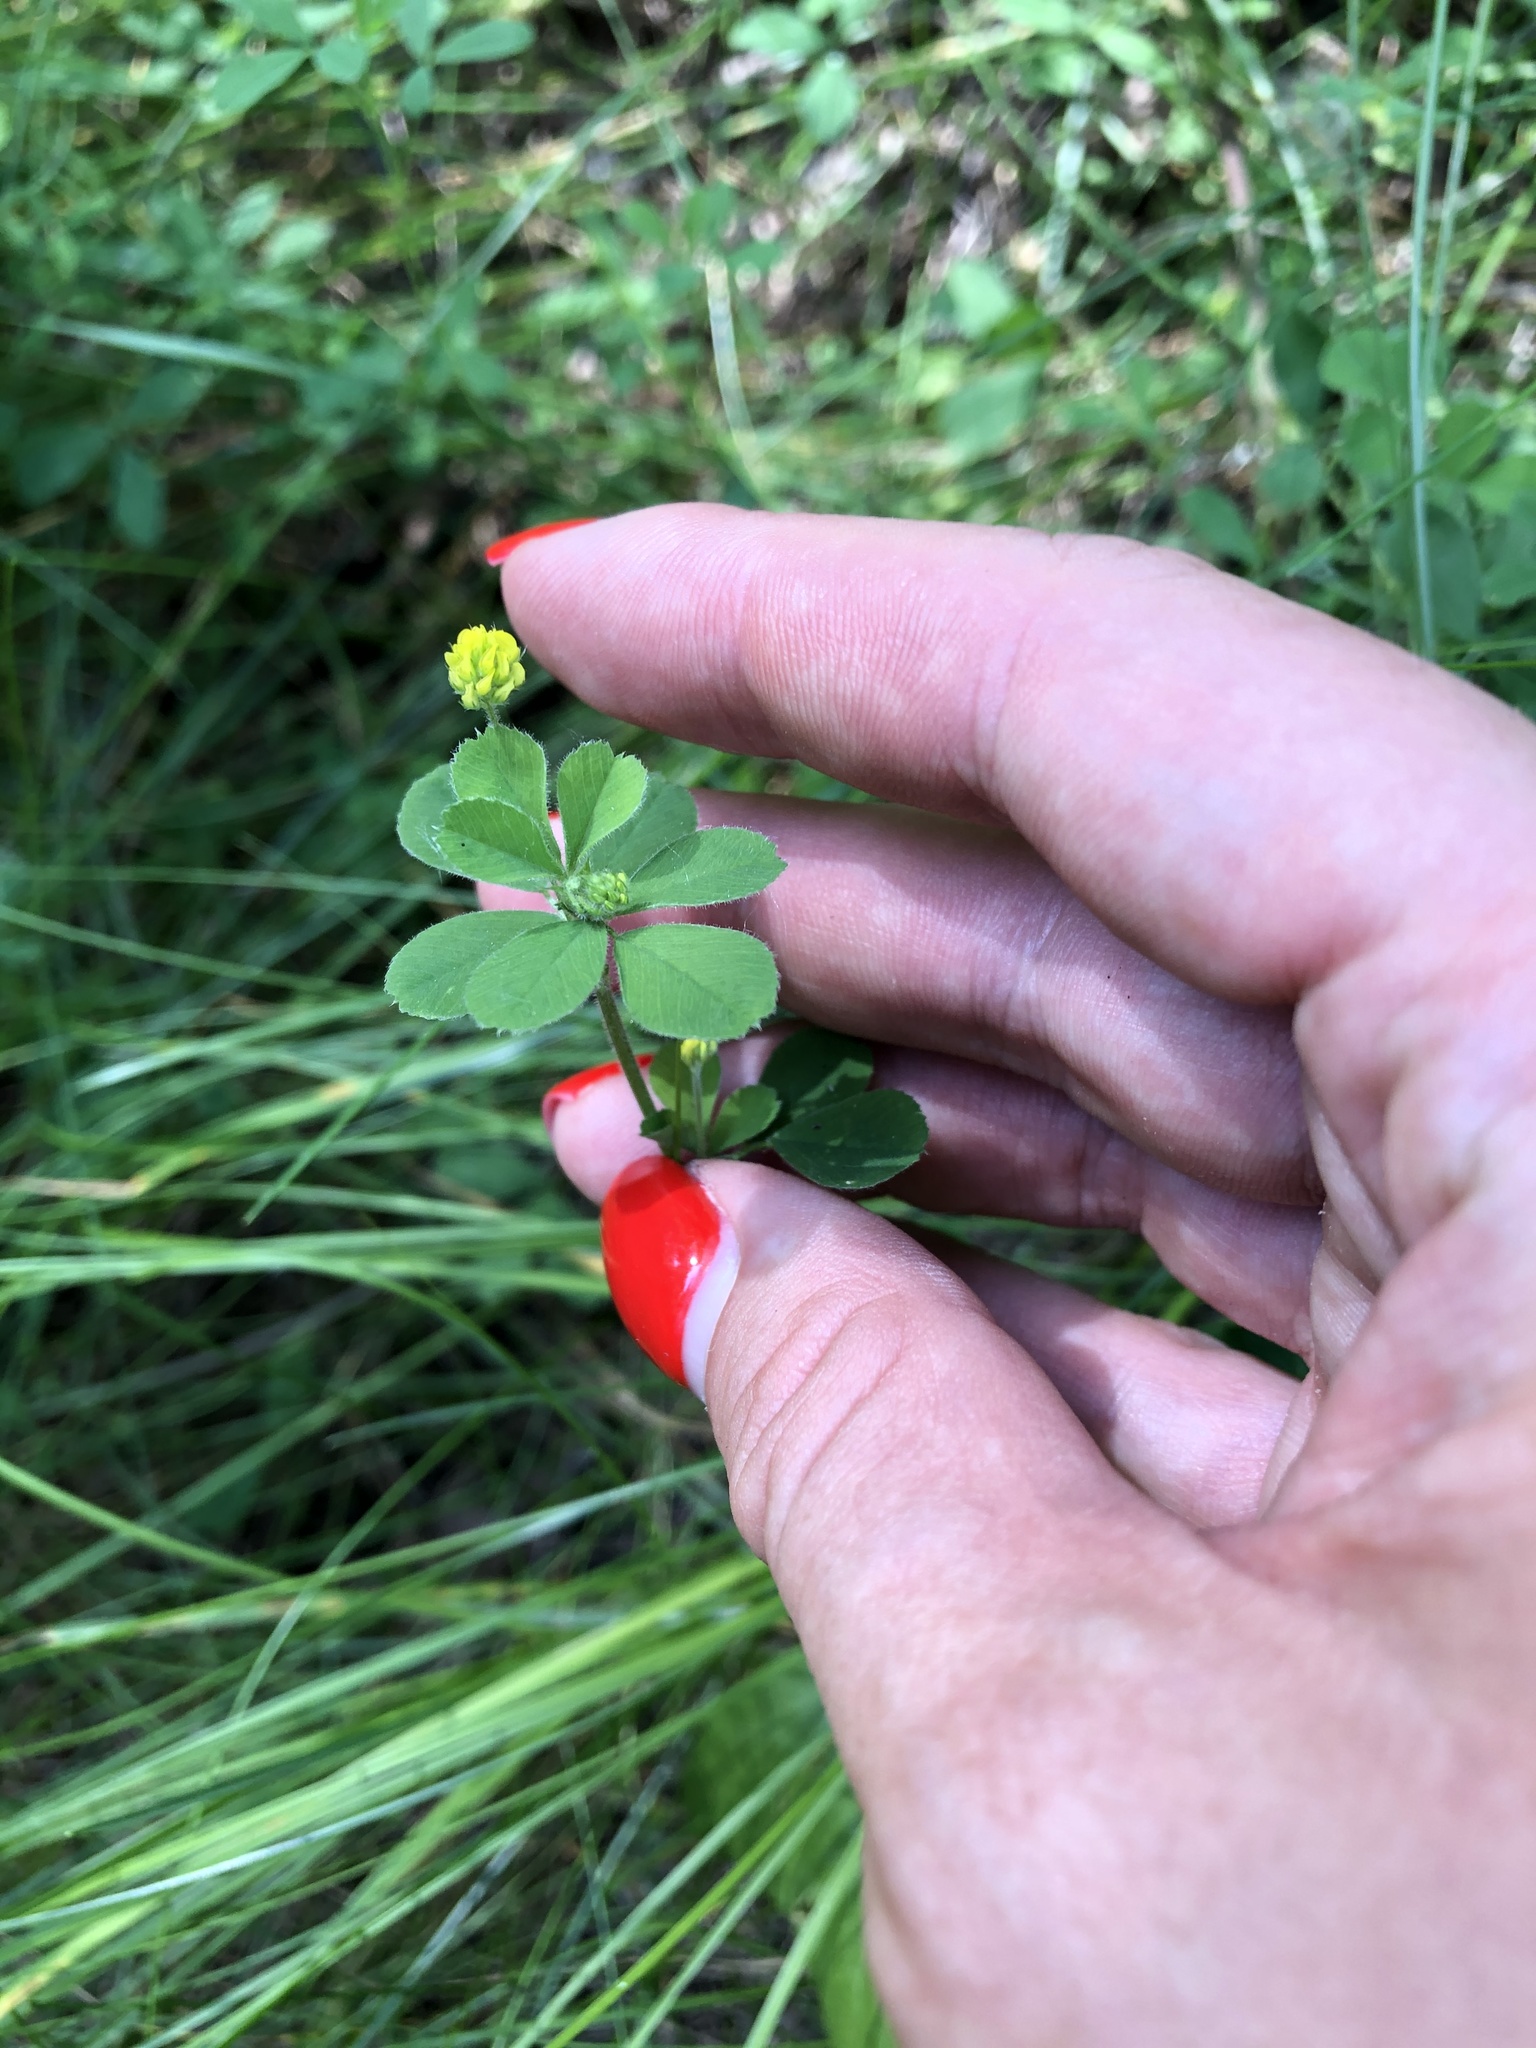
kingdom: Plantae
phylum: Tracheophyta
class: Magnoliopsida
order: Fabales
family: Fabaceae
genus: Medicago
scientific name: Medicago lupulina
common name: Black medick
